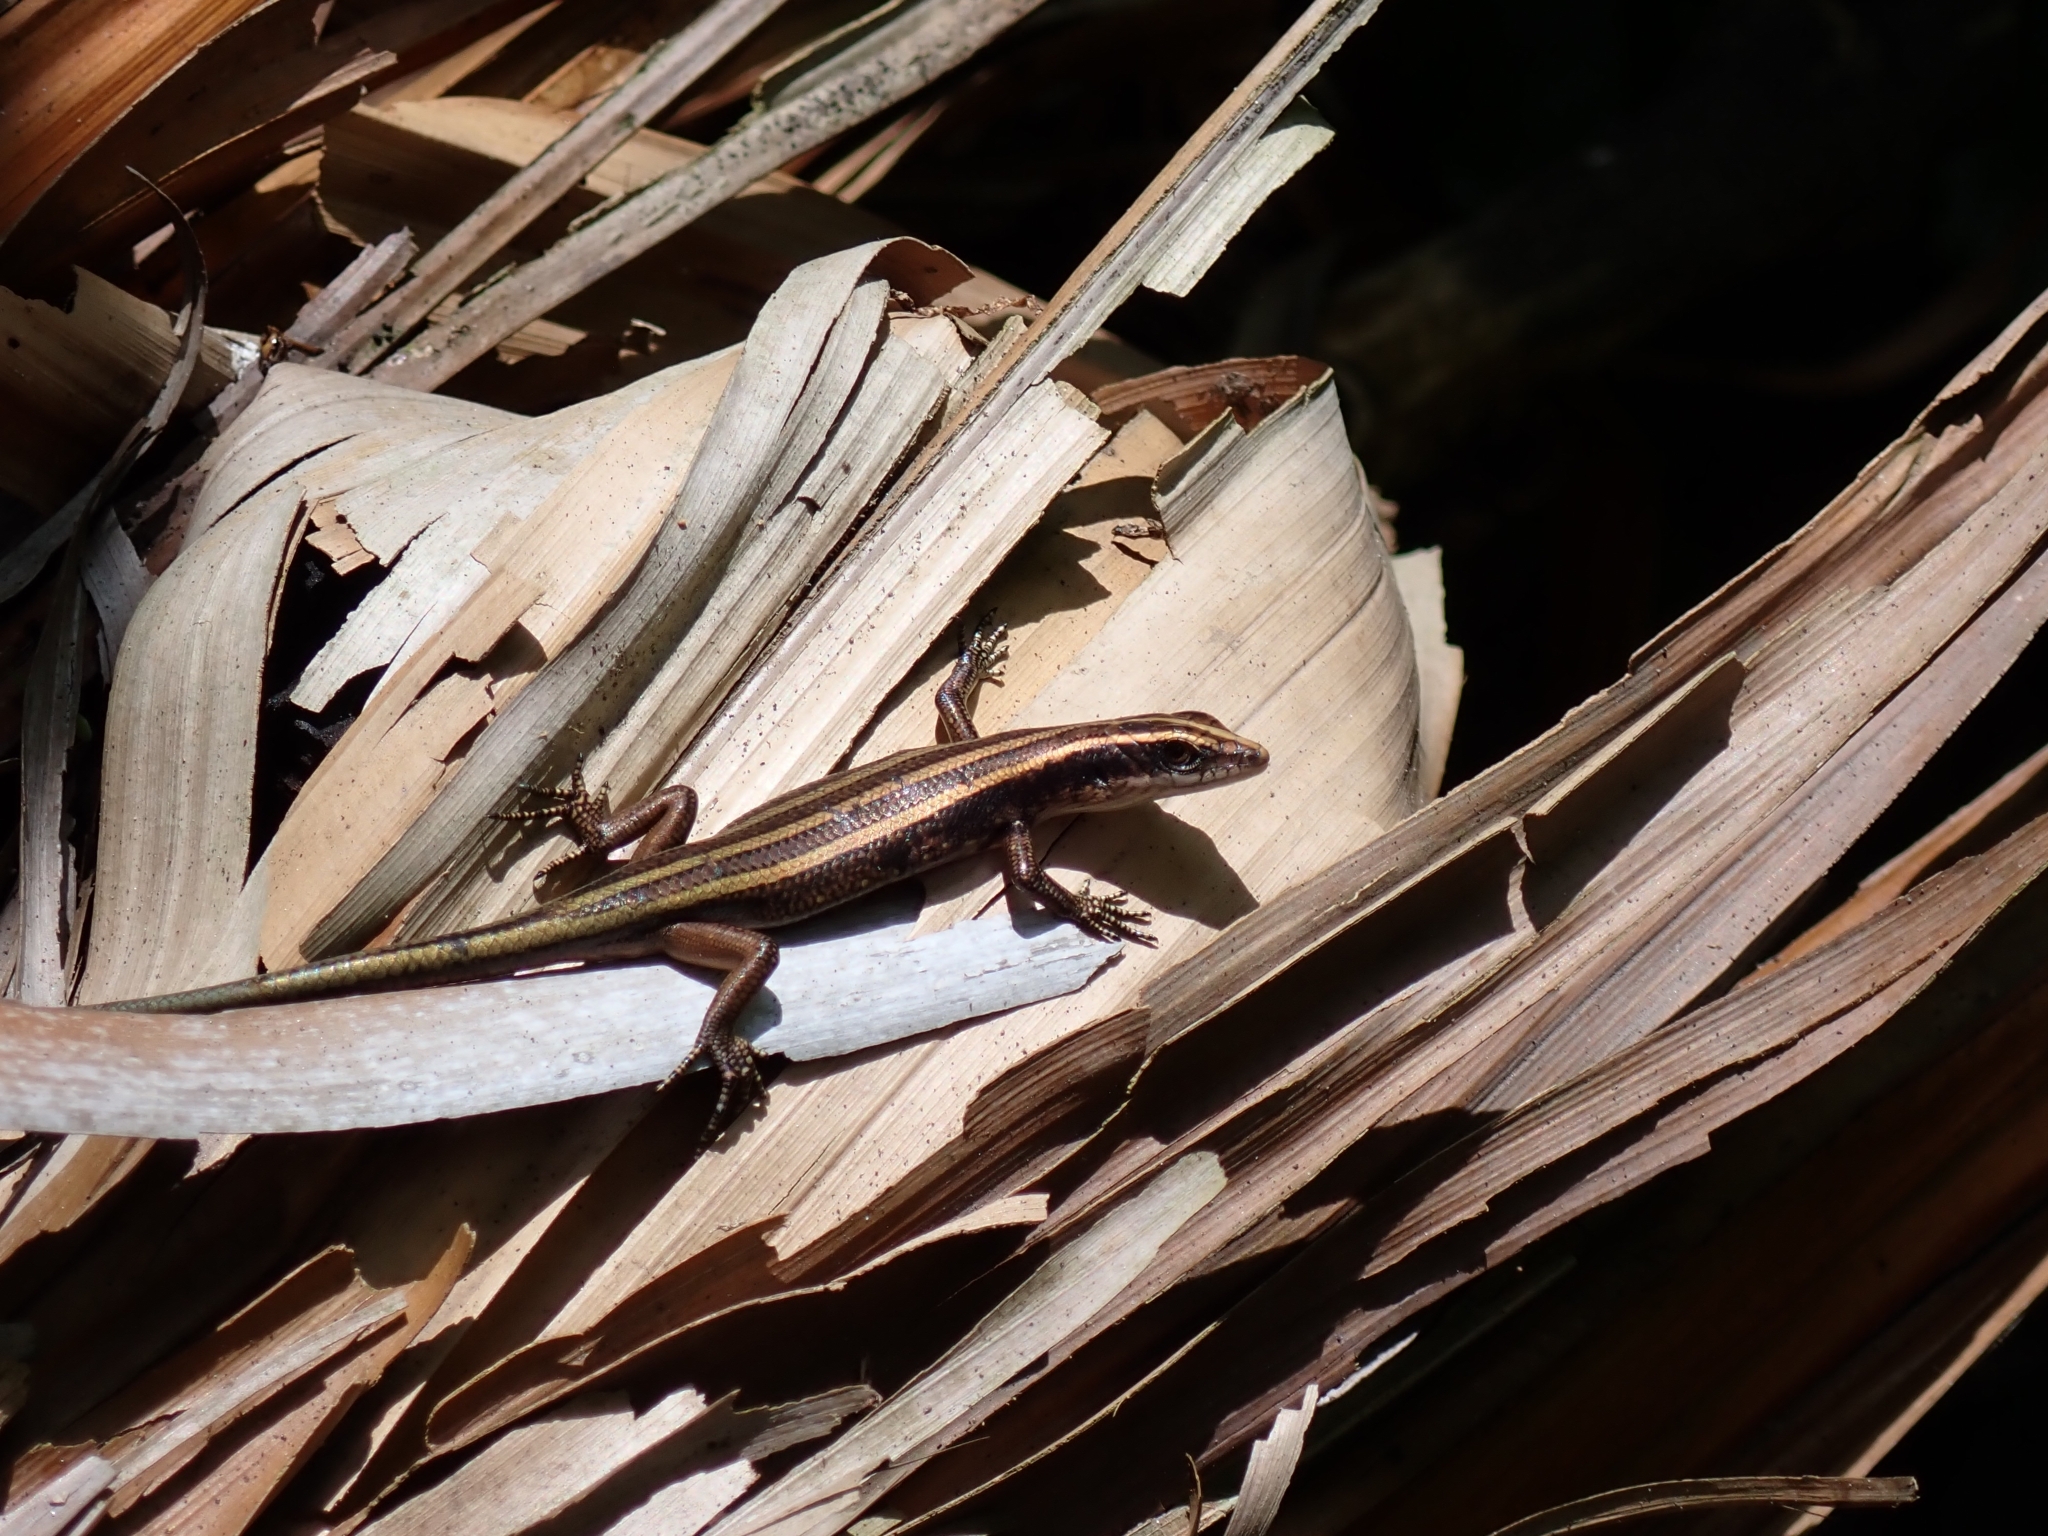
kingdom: Animalia
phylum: Chordata
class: Squamata
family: Scincidae
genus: Emoia
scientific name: Emoia caeruleocauda
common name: Pacific bluetail skink
